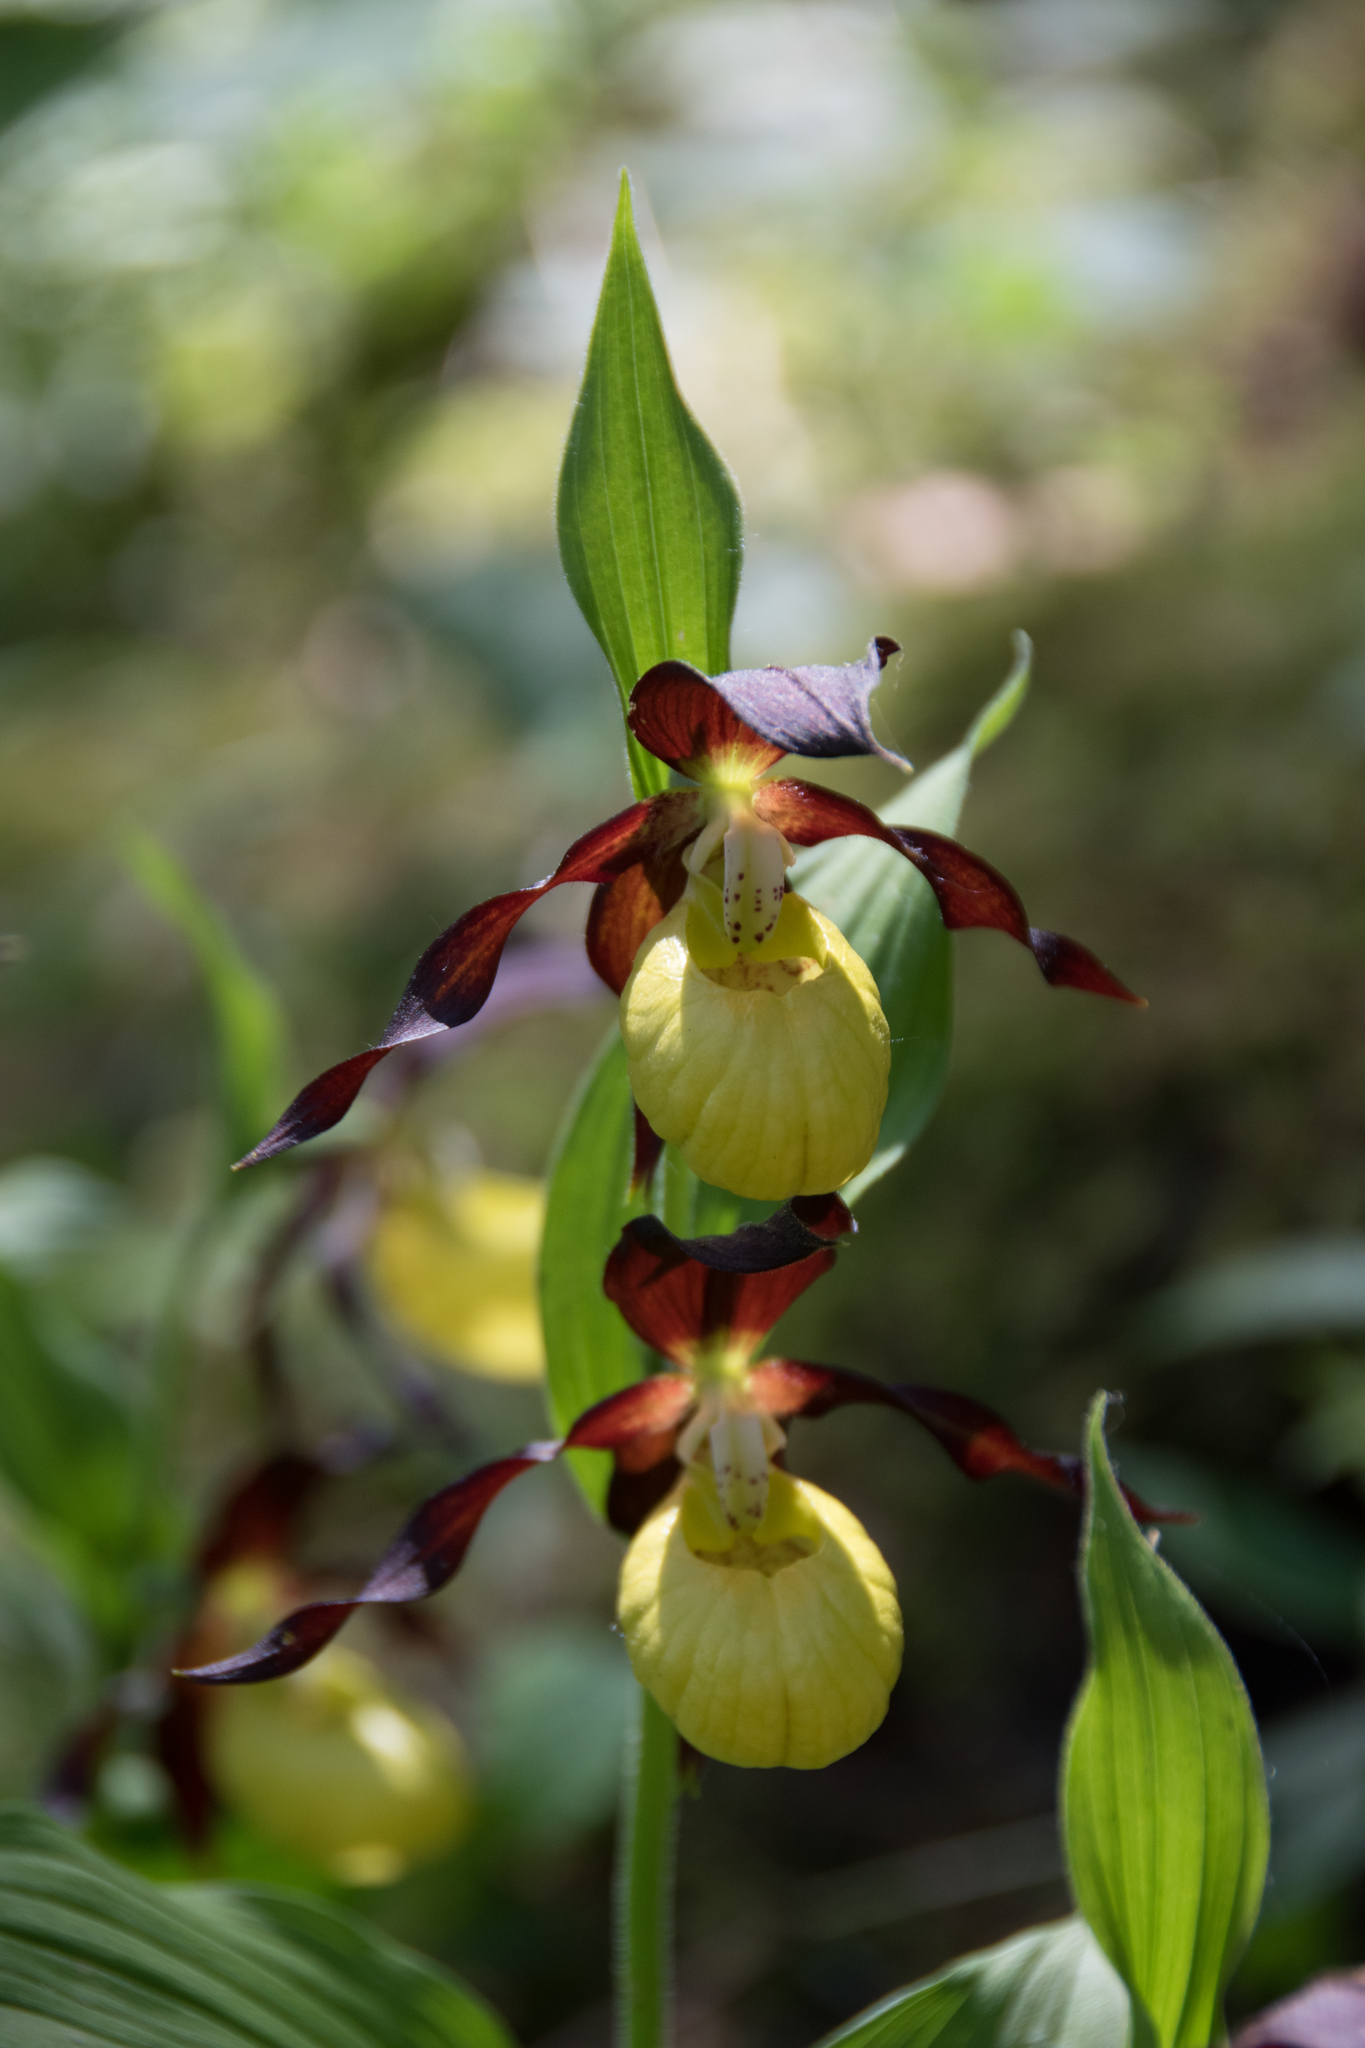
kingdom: Plantae
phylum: Tracheophyta
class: Liliopsida
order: Asparagales
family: Orchidaceae
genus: Cypripedium
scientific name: Cypripedium calceolus
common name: Lady's-slipper
